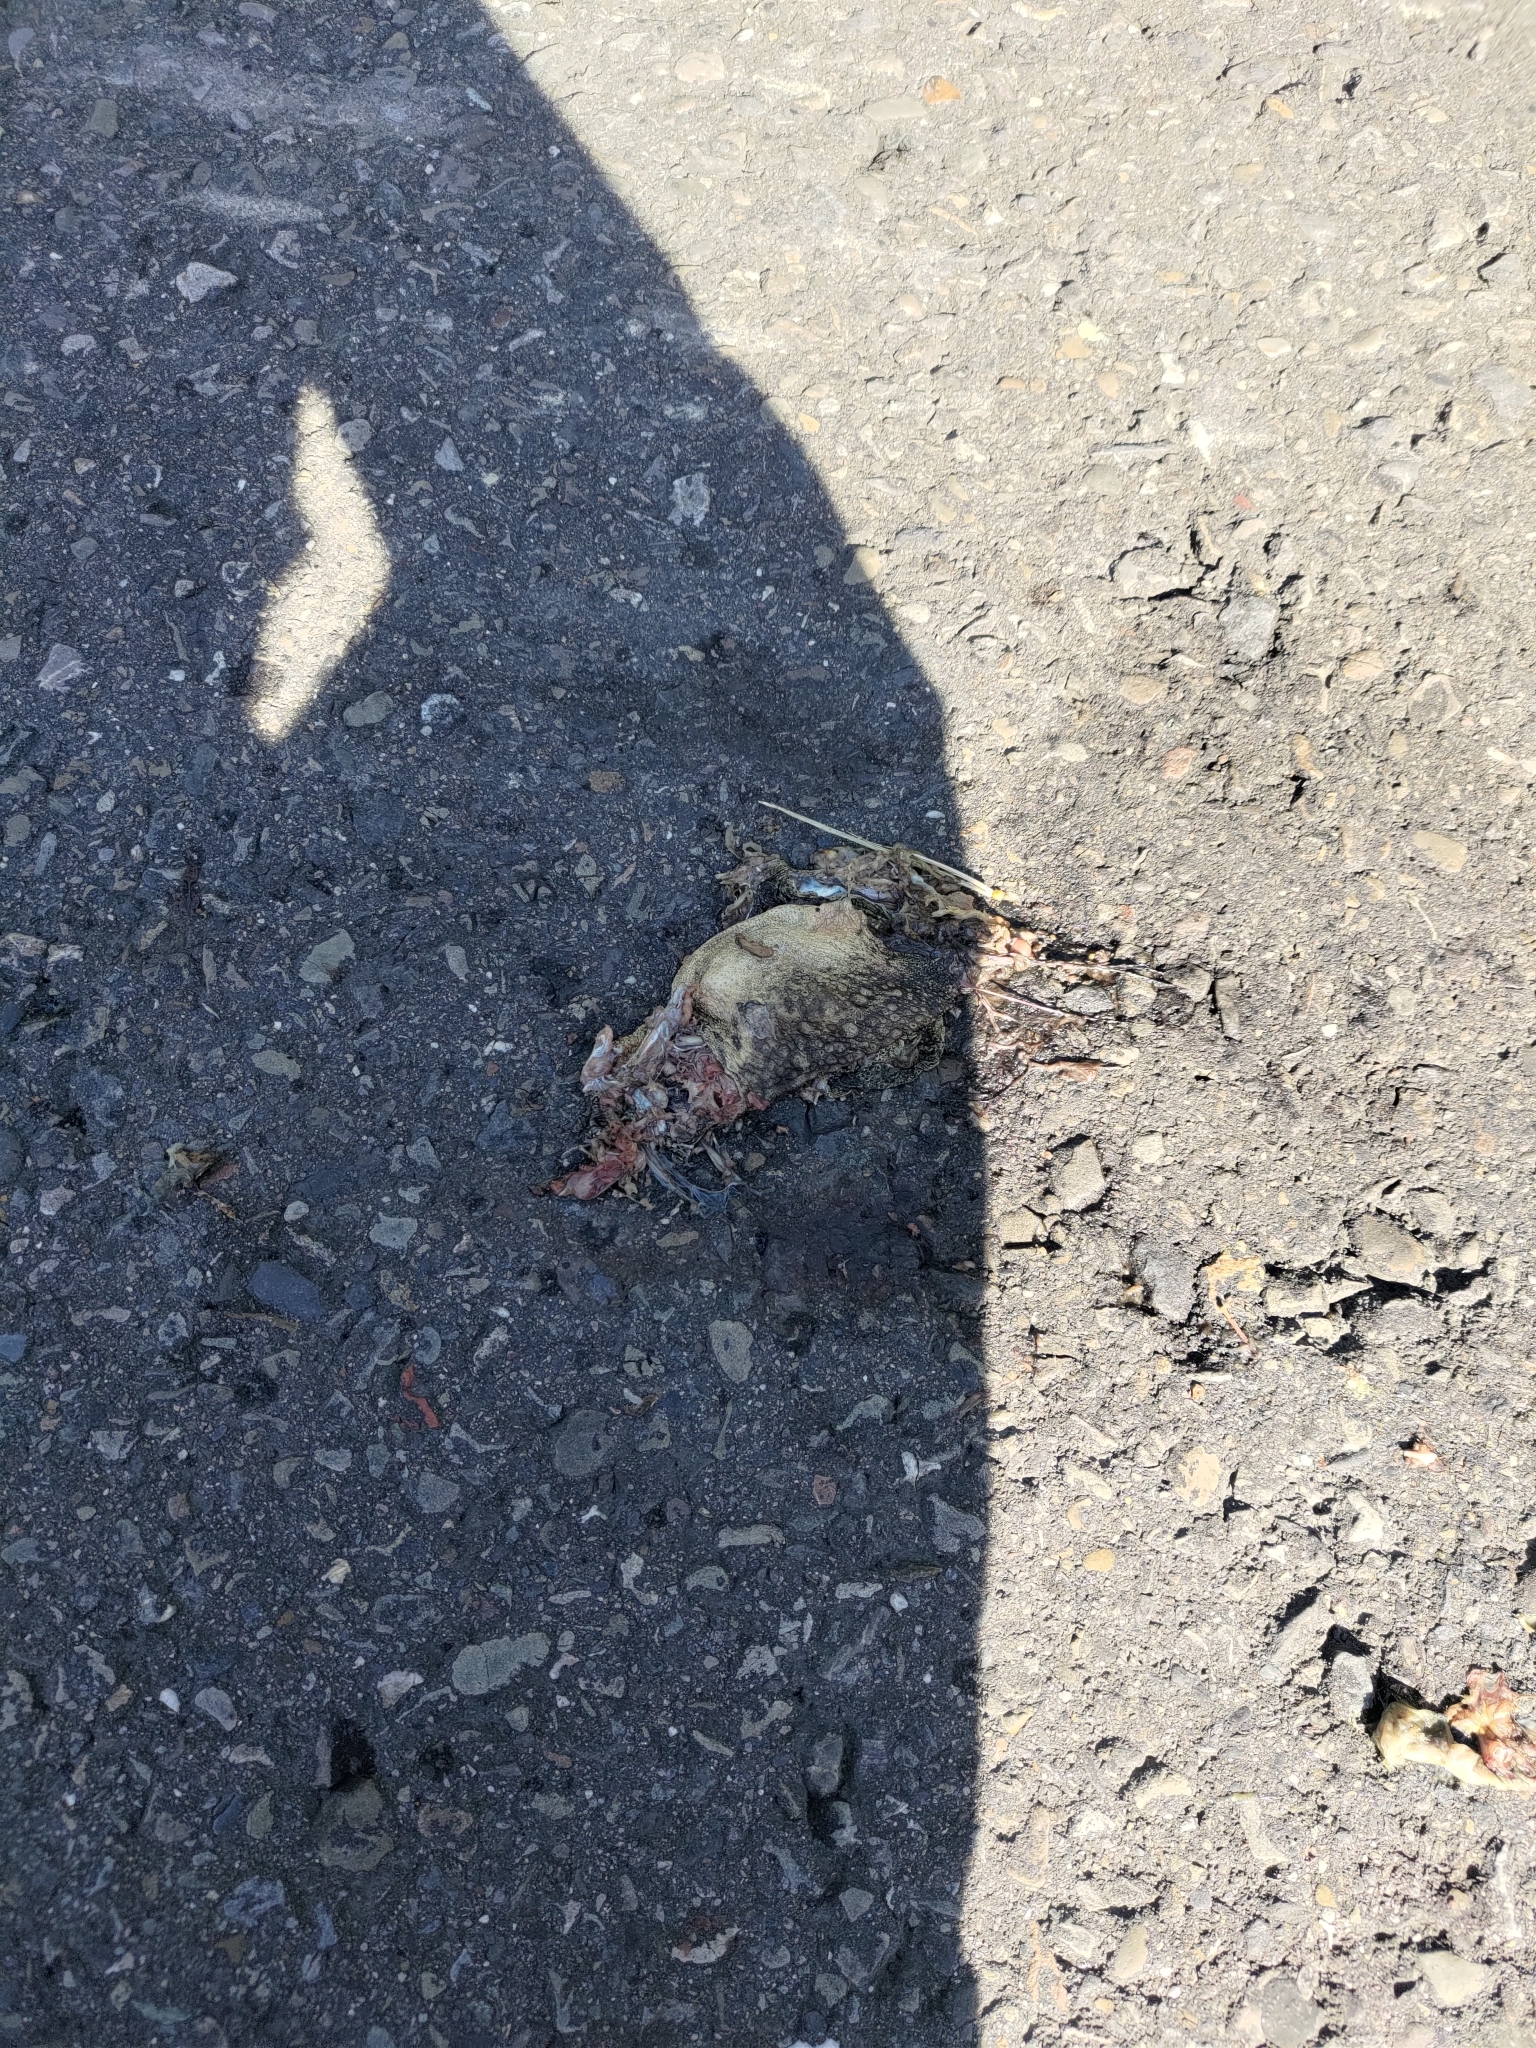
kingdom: Animalia
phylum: Chordata
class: Amphibia
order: Anura
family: Bufonidae
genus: Duttaphrynus
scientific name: Duttaphrynus melanostictus
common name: Common sunda toad
